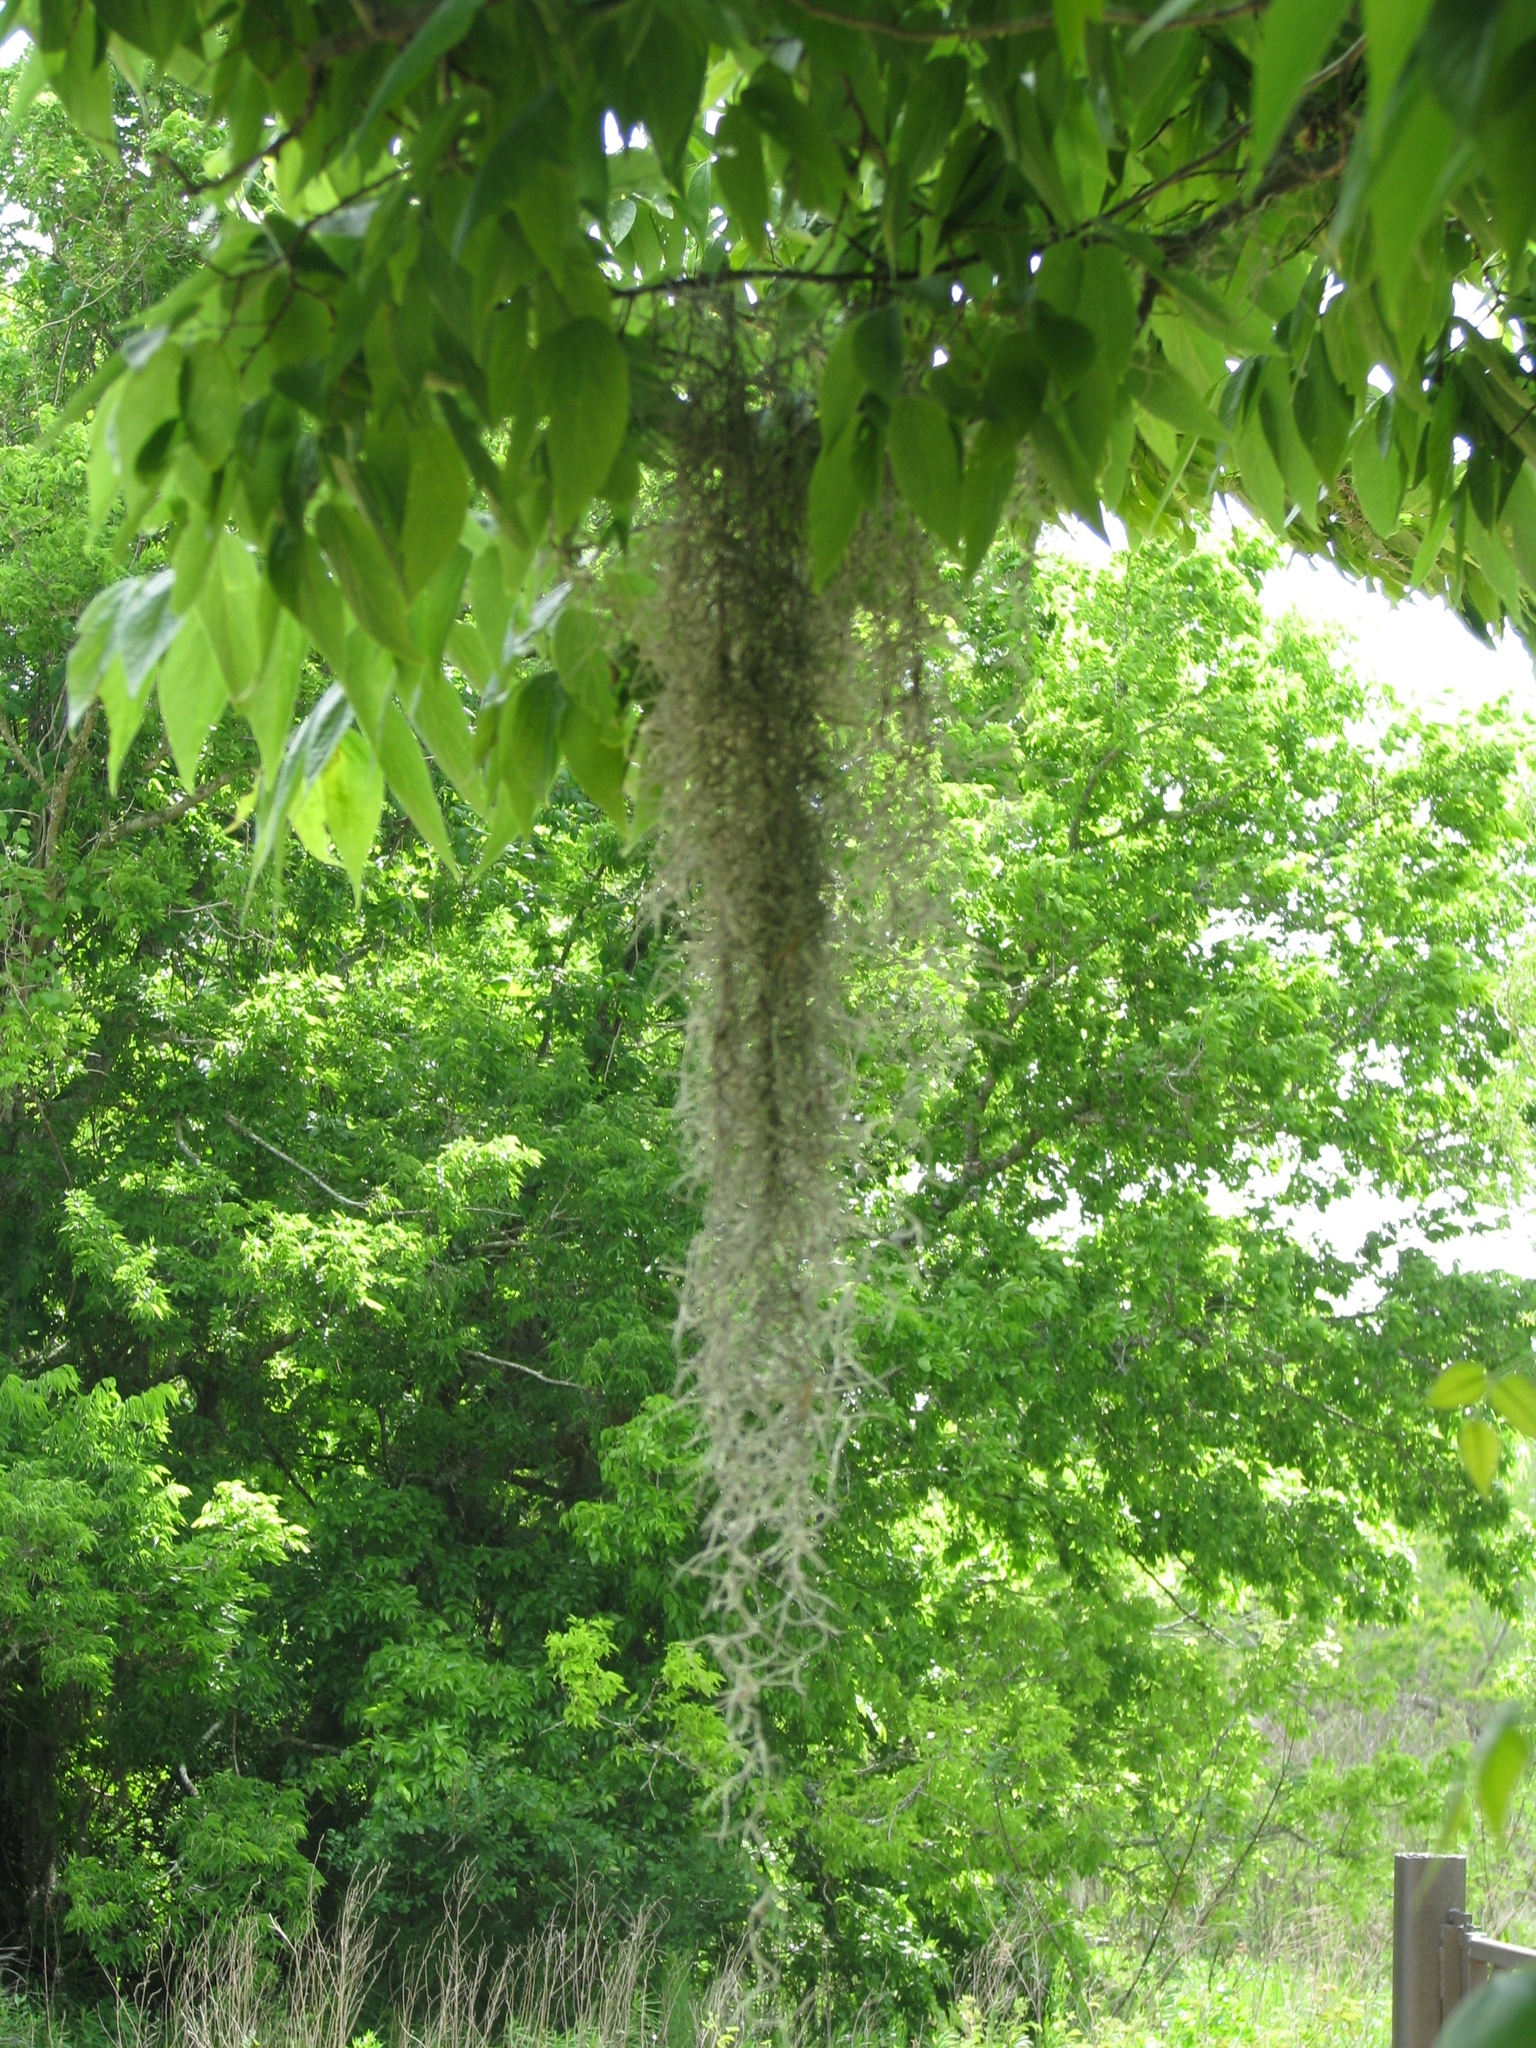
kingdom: Plantae
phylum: Tracheophyta
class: Liliopsida
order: Poales
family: Bromeliaceae
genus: Tillandsia
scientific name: Tillandsia usneoides
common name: Spanish moss
